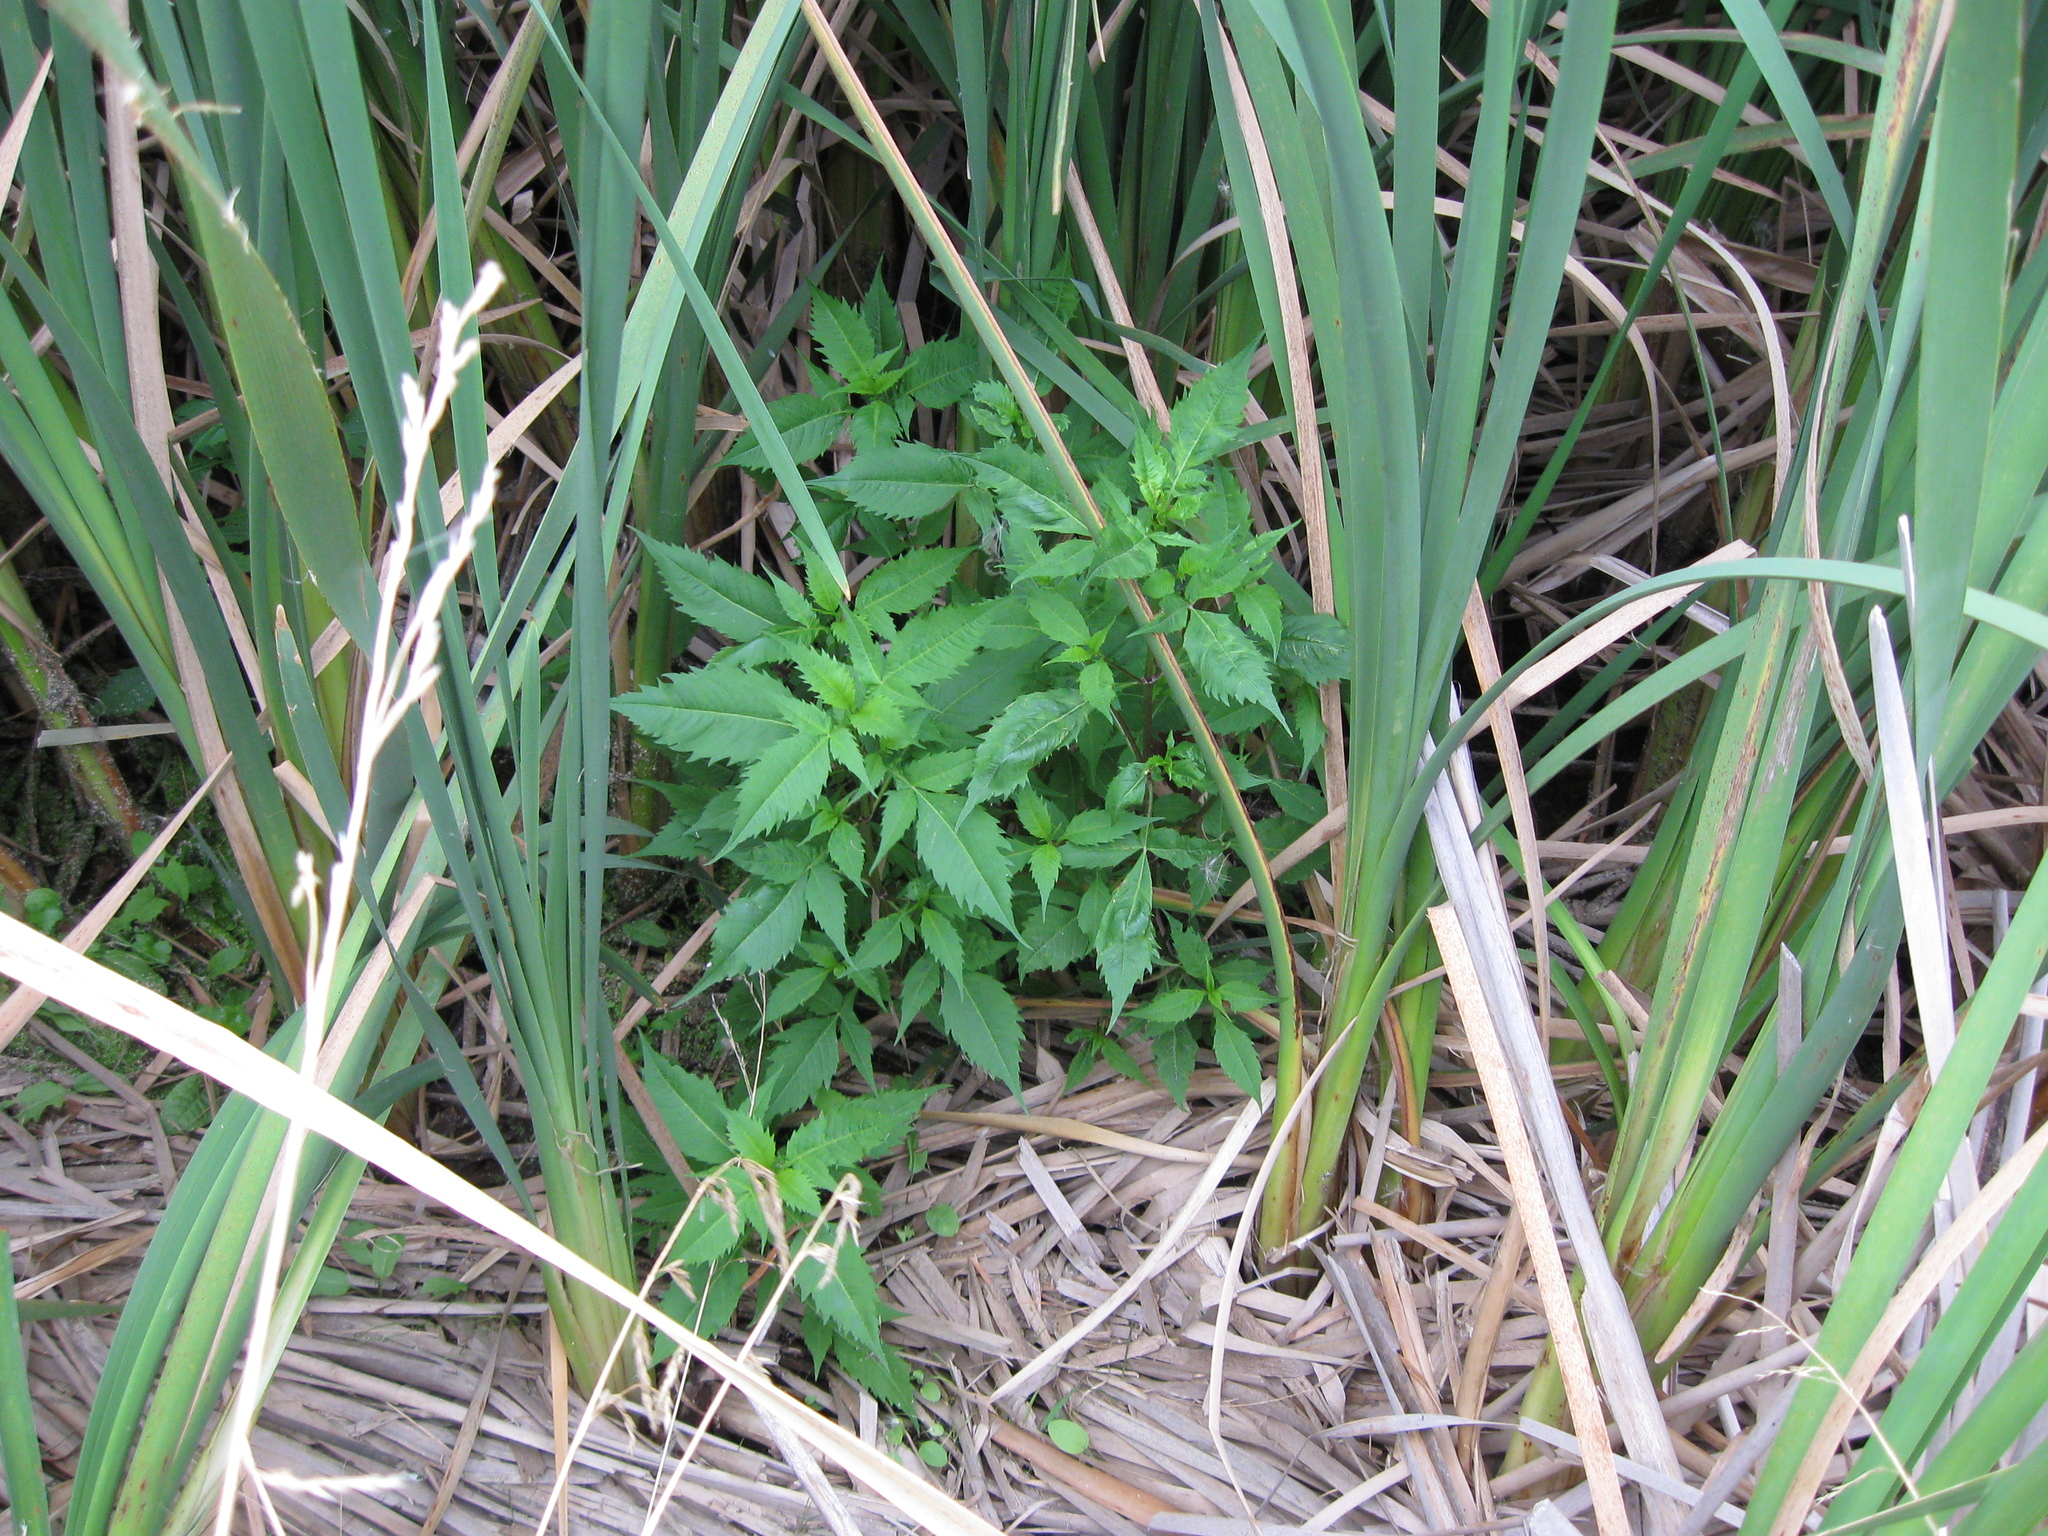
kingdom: Plantae
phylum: Tracheophyta
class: Magnoliopsida
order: Asterales
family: Asteraceae
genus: Bidens
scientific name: Bidens frondosa
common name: Beggarticks
